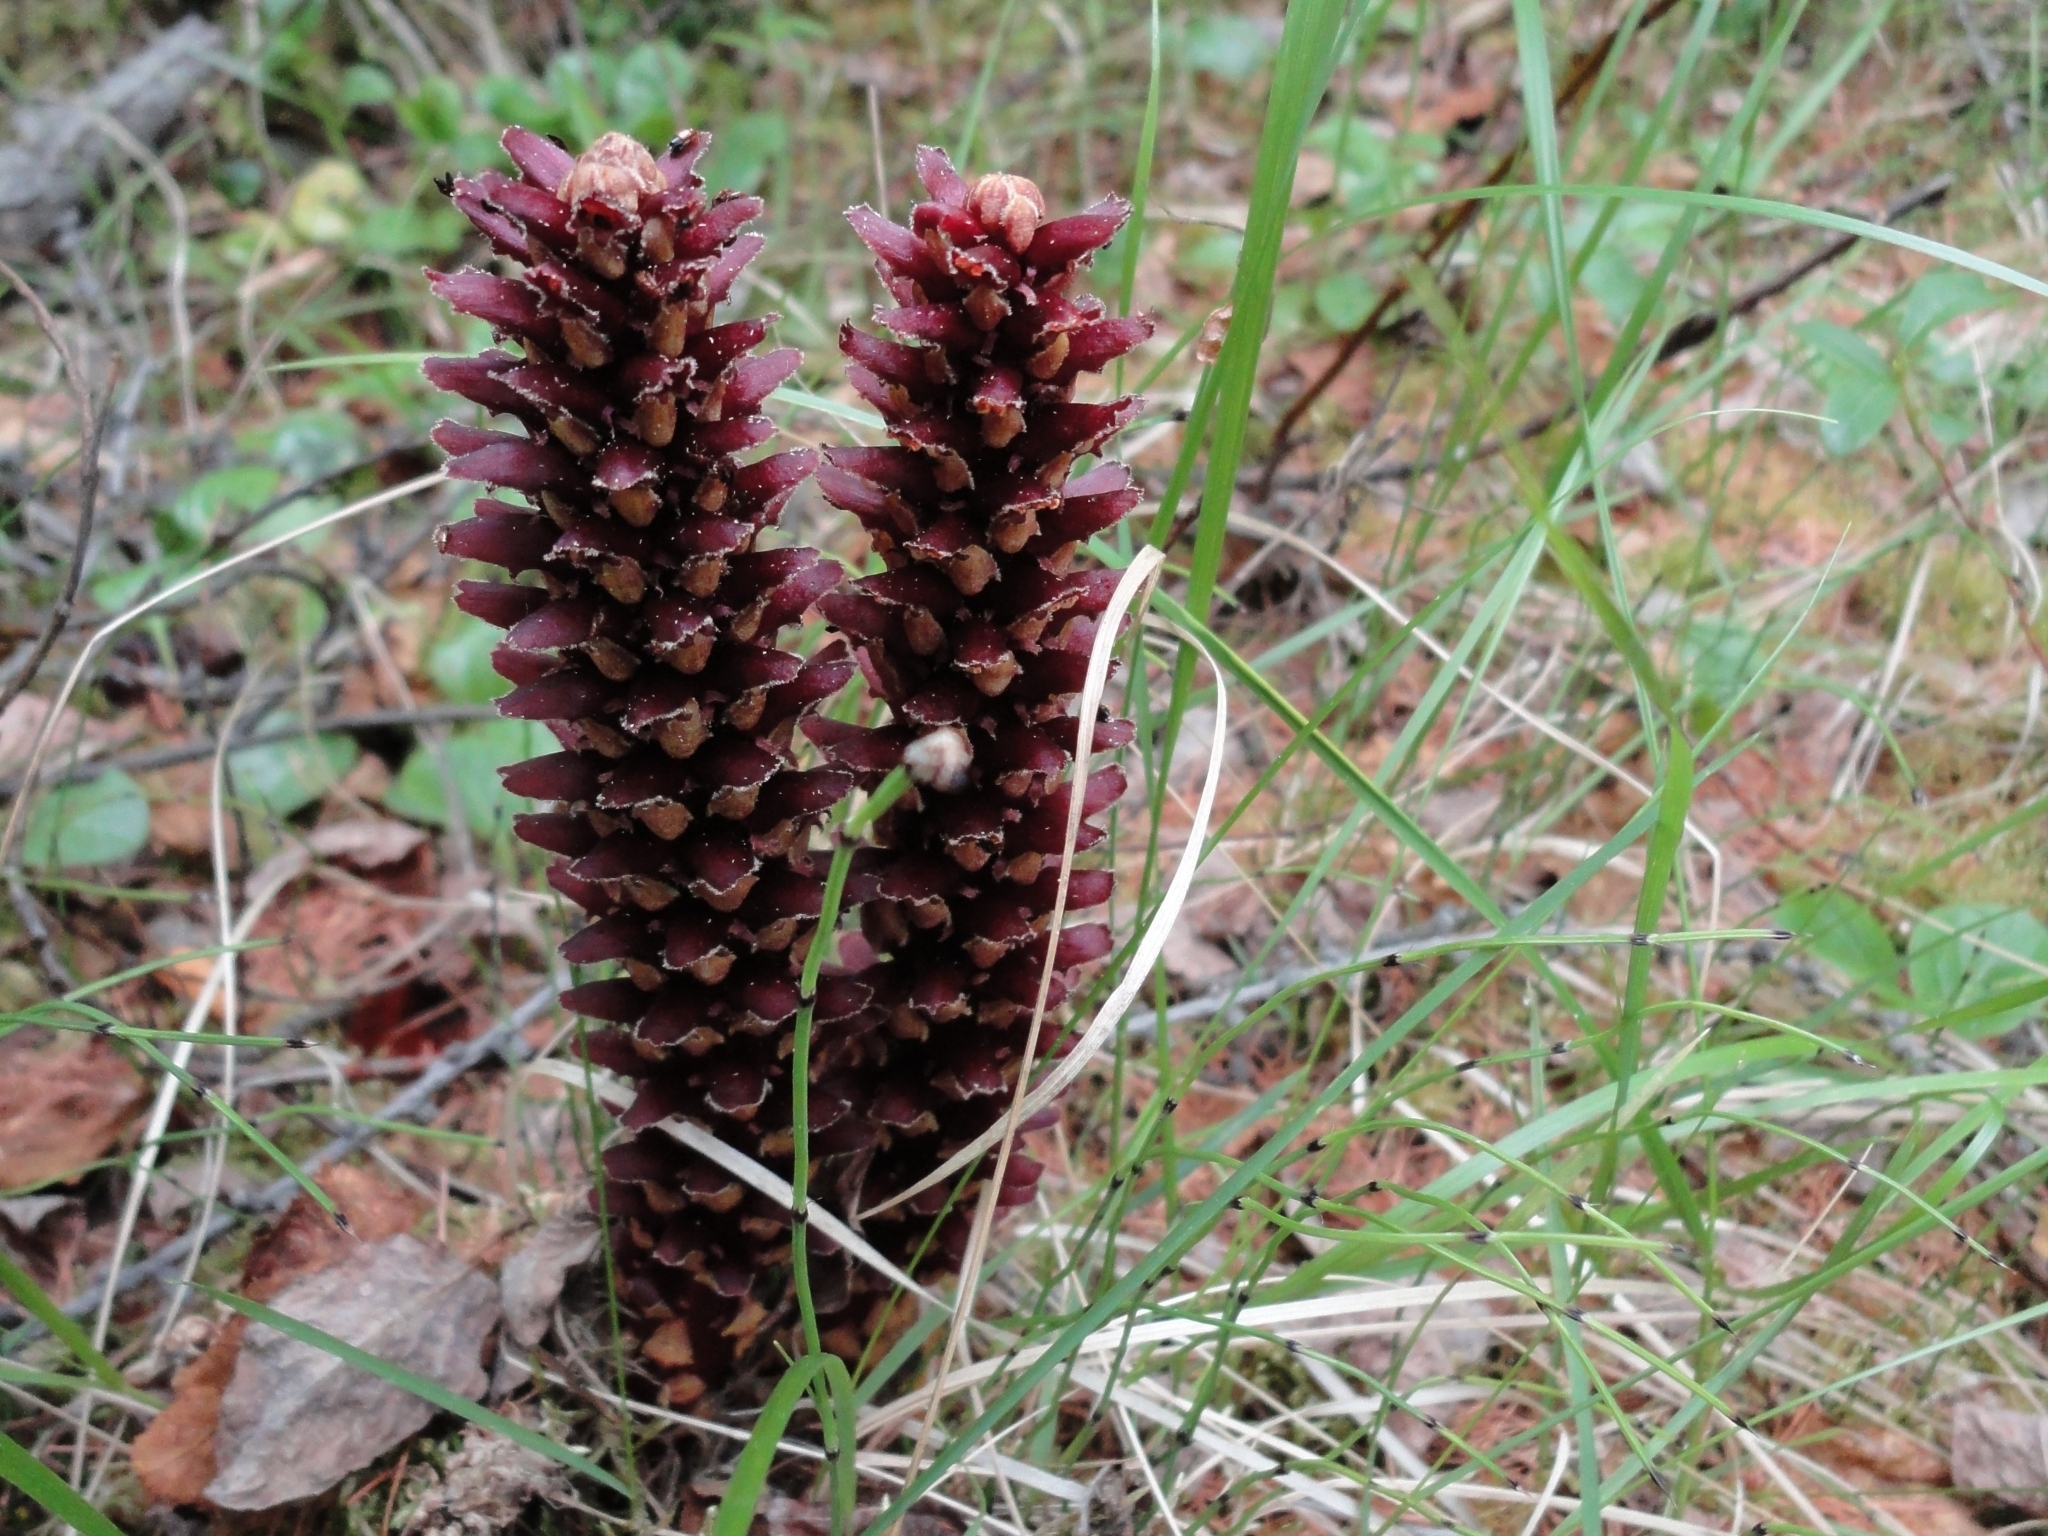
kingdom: Plantae
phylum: Tracheophyta
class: Magnoliopsida
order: Lamiales
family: Orobanchaceae
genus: Boschniakia
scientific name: Boschniakia rossica
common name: Poque
